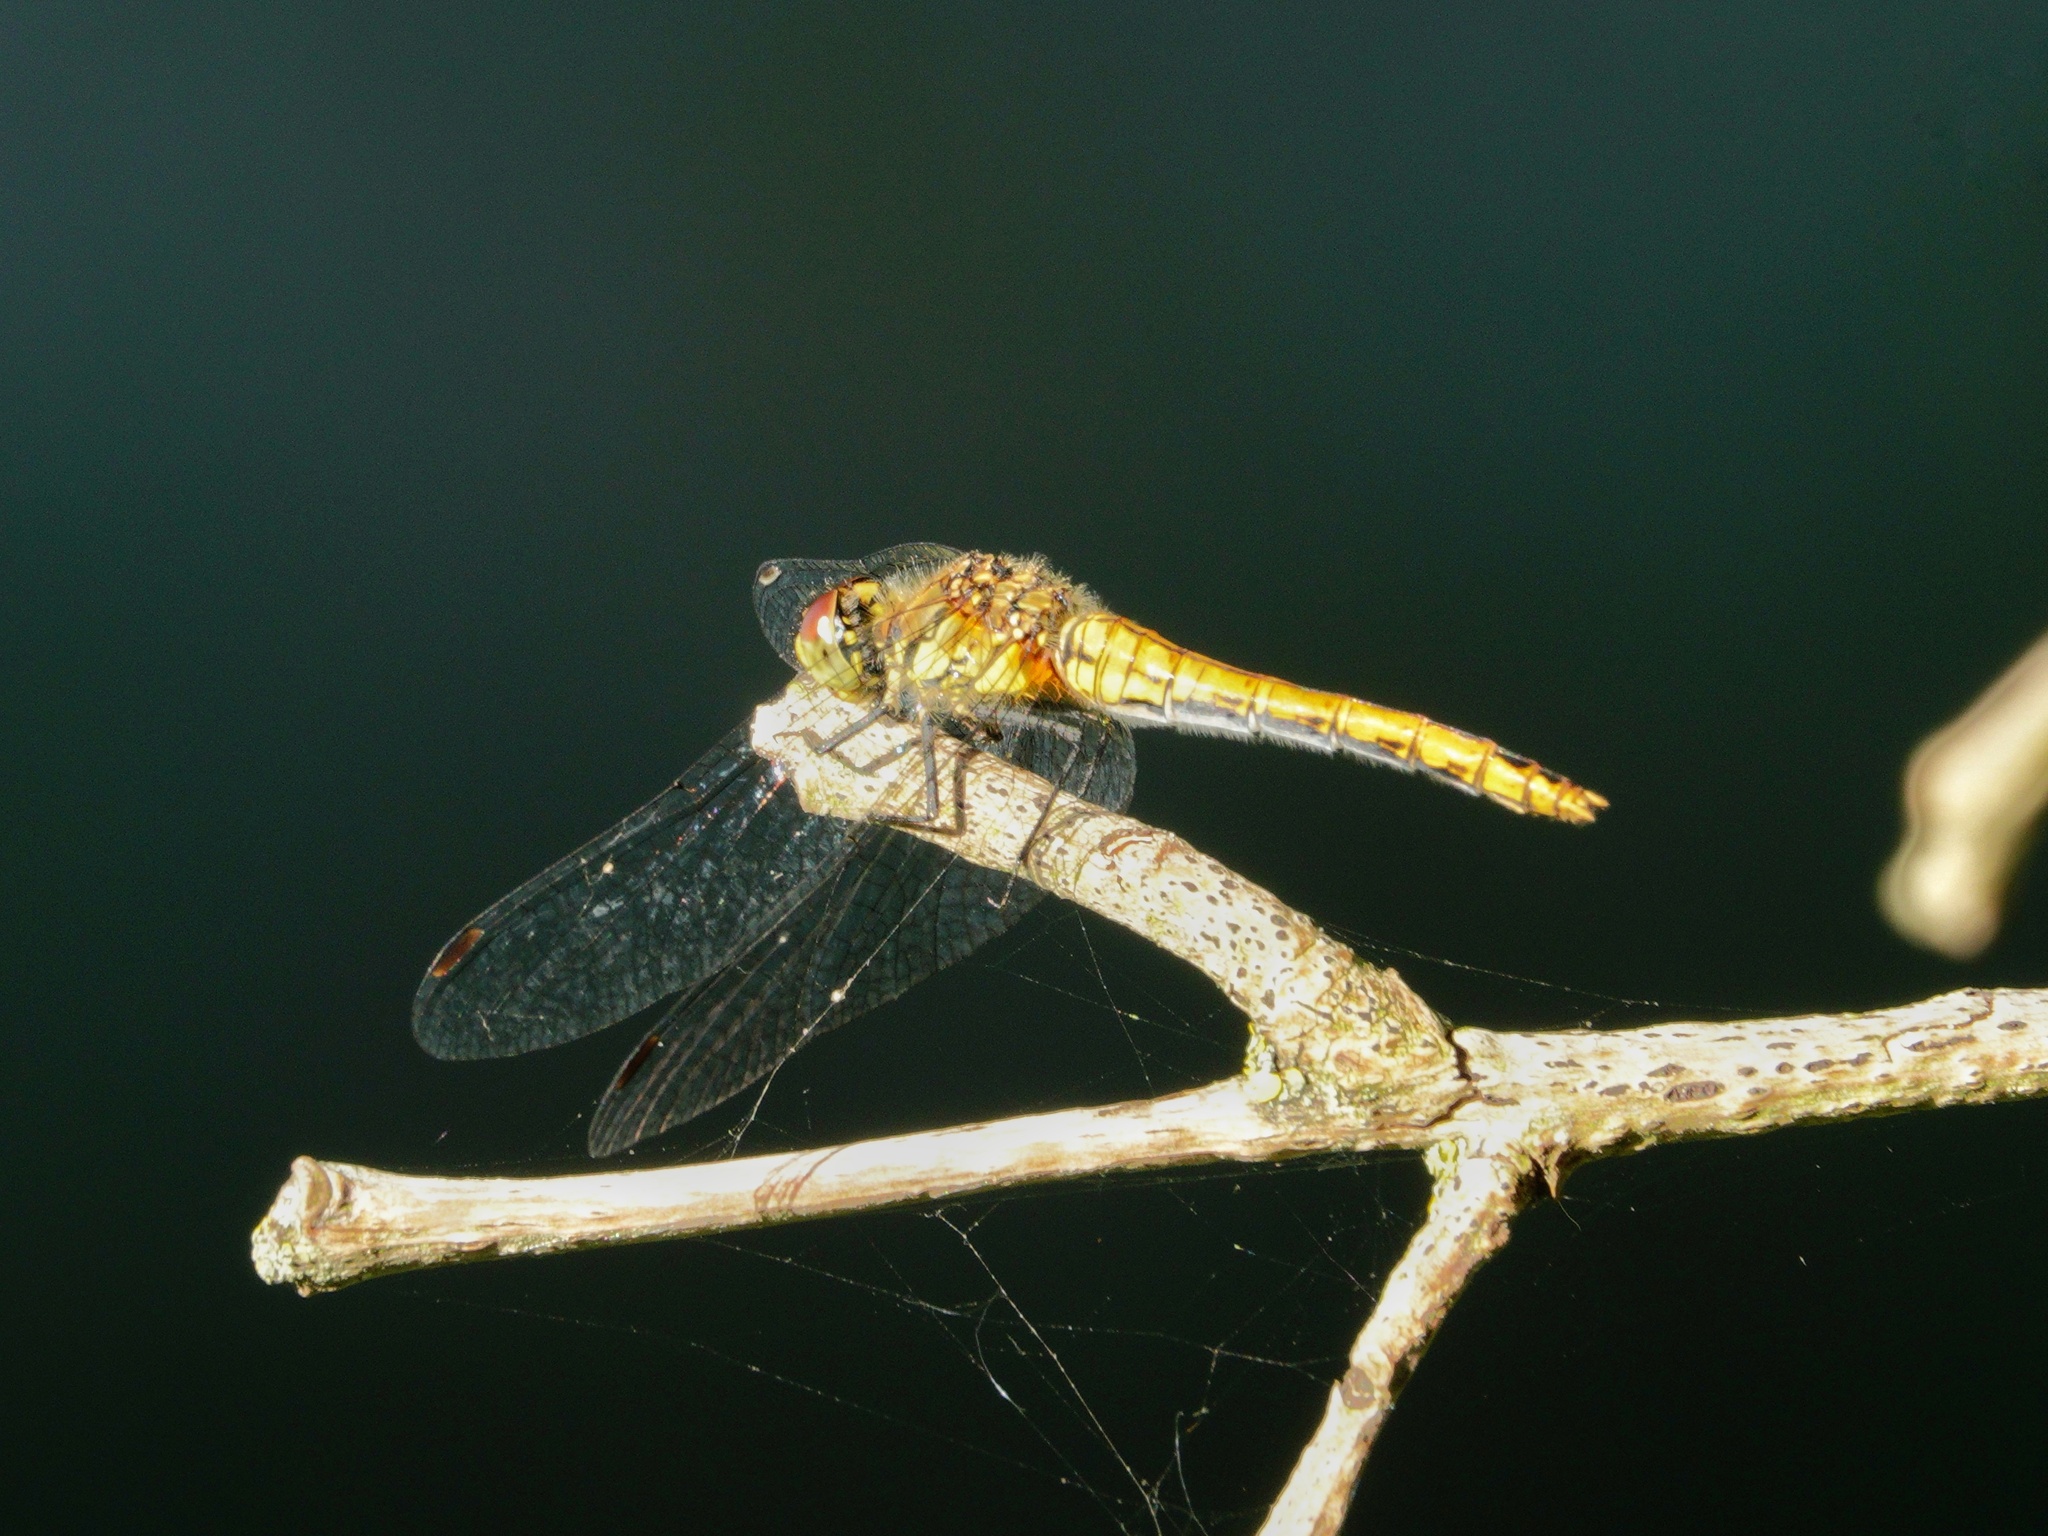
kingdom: Animalia
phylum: Arthropoda
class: Insecta
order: Odonata
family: Libellulidae
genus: Sympetrum
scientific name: Sympetrum sanguineum
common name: Ruddy darter
